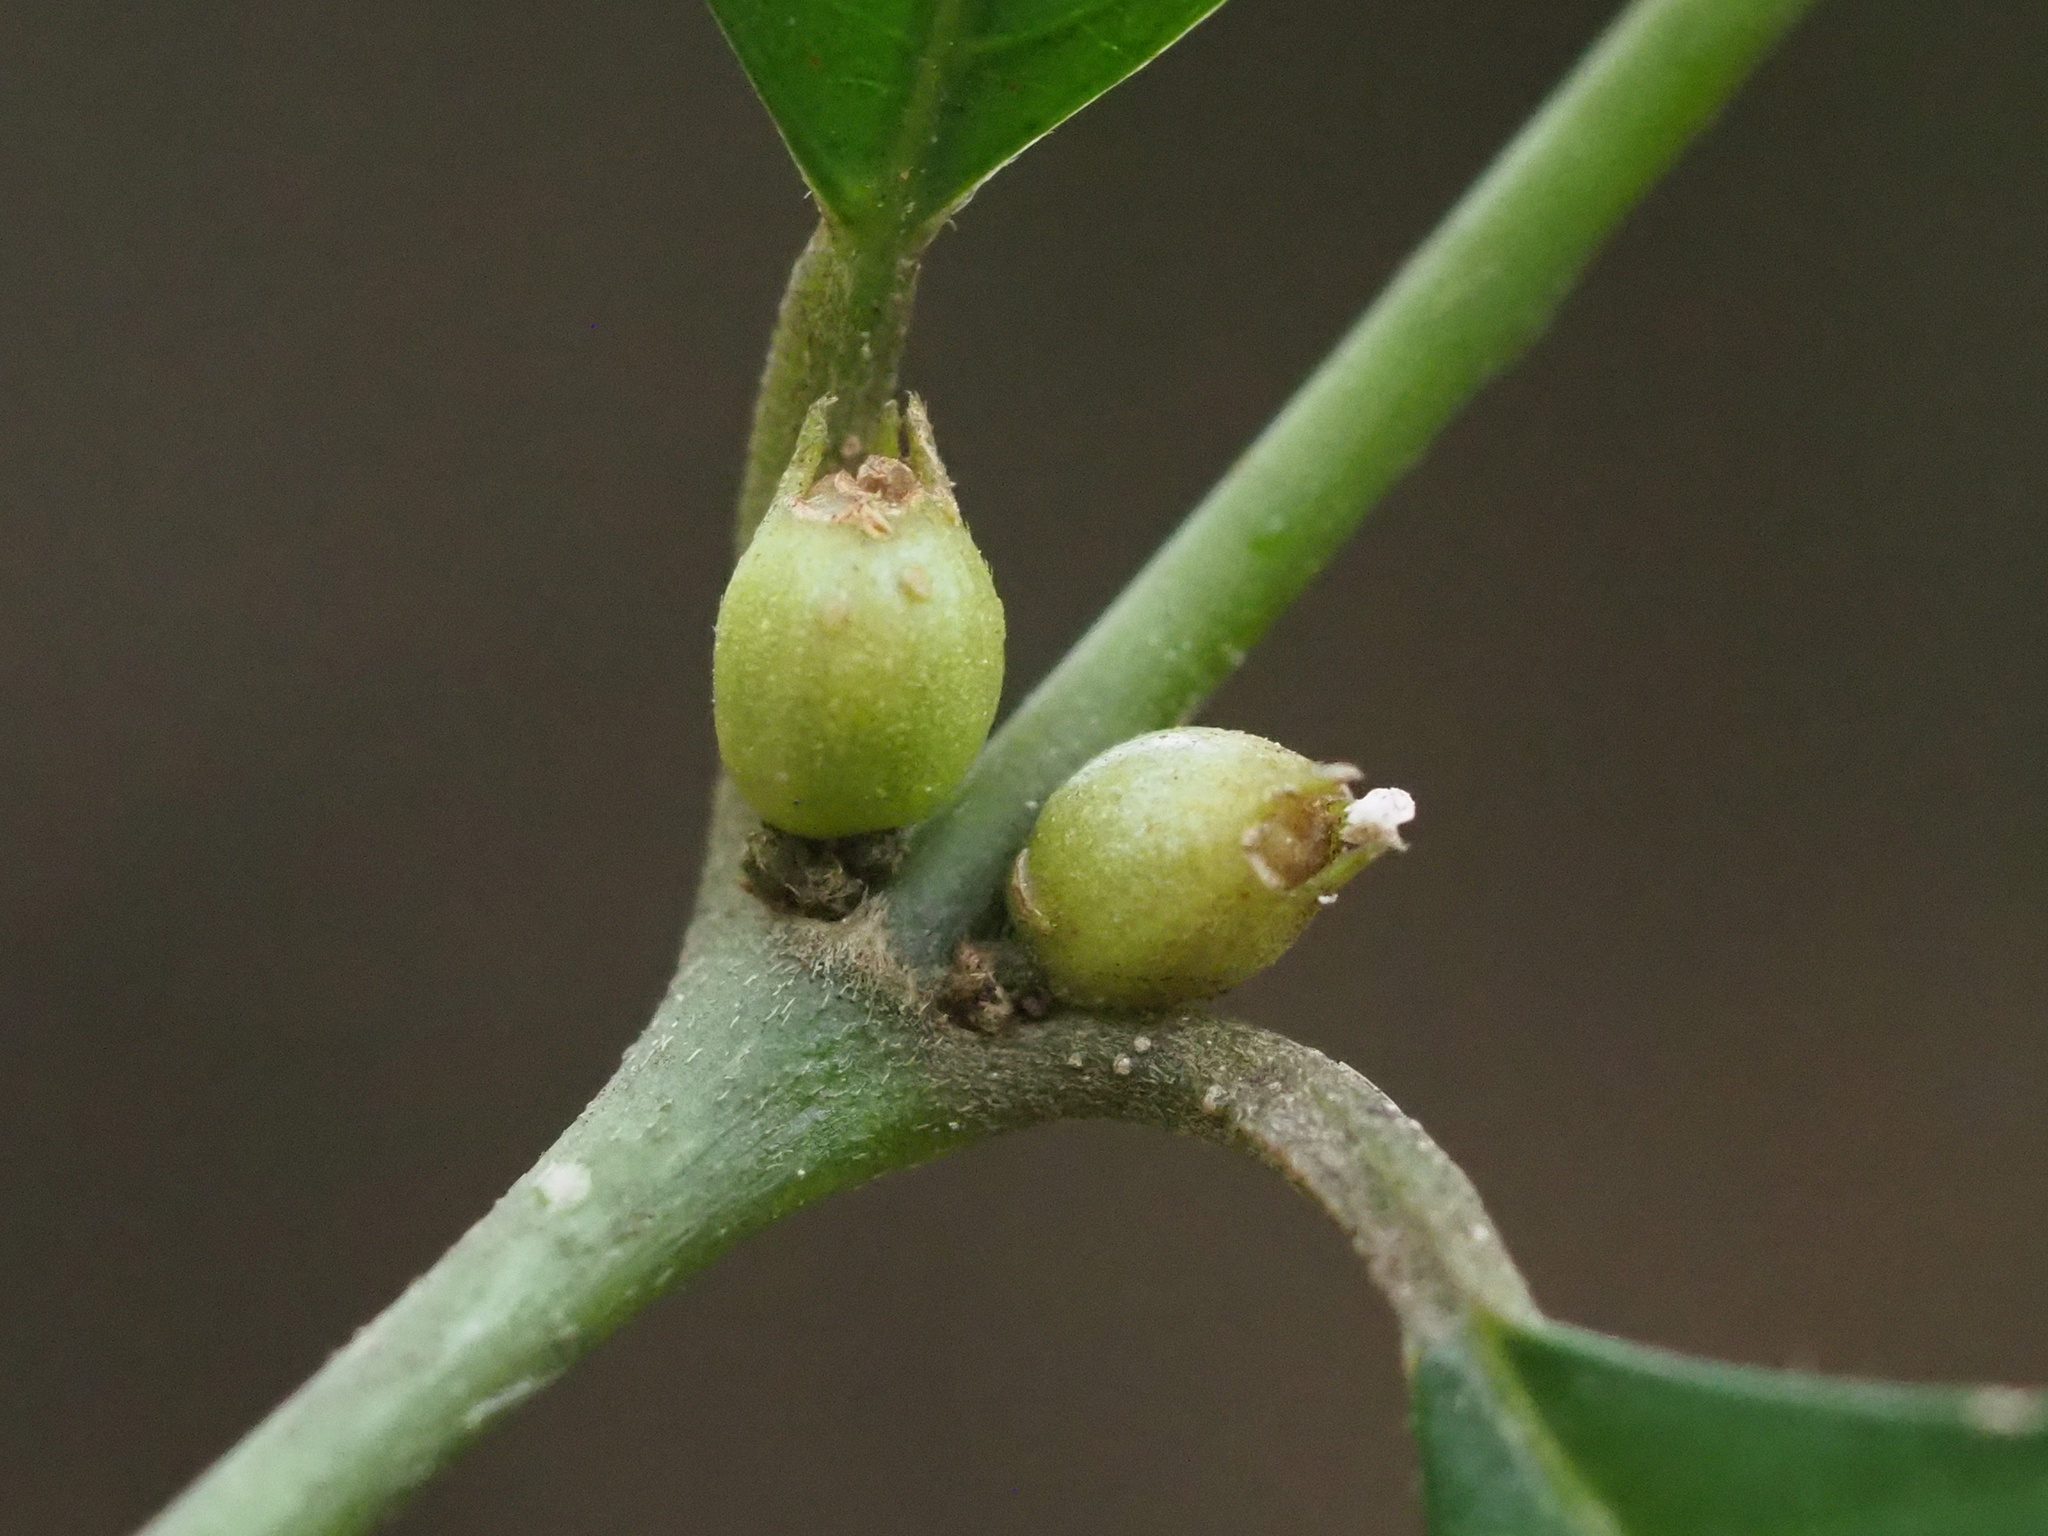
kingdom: Plantae
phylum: Tracheophyta
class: Magnoliopsida
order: Gentianales
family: Rubiaceae
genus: Lasianthus
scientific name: Lasianthus fordii
